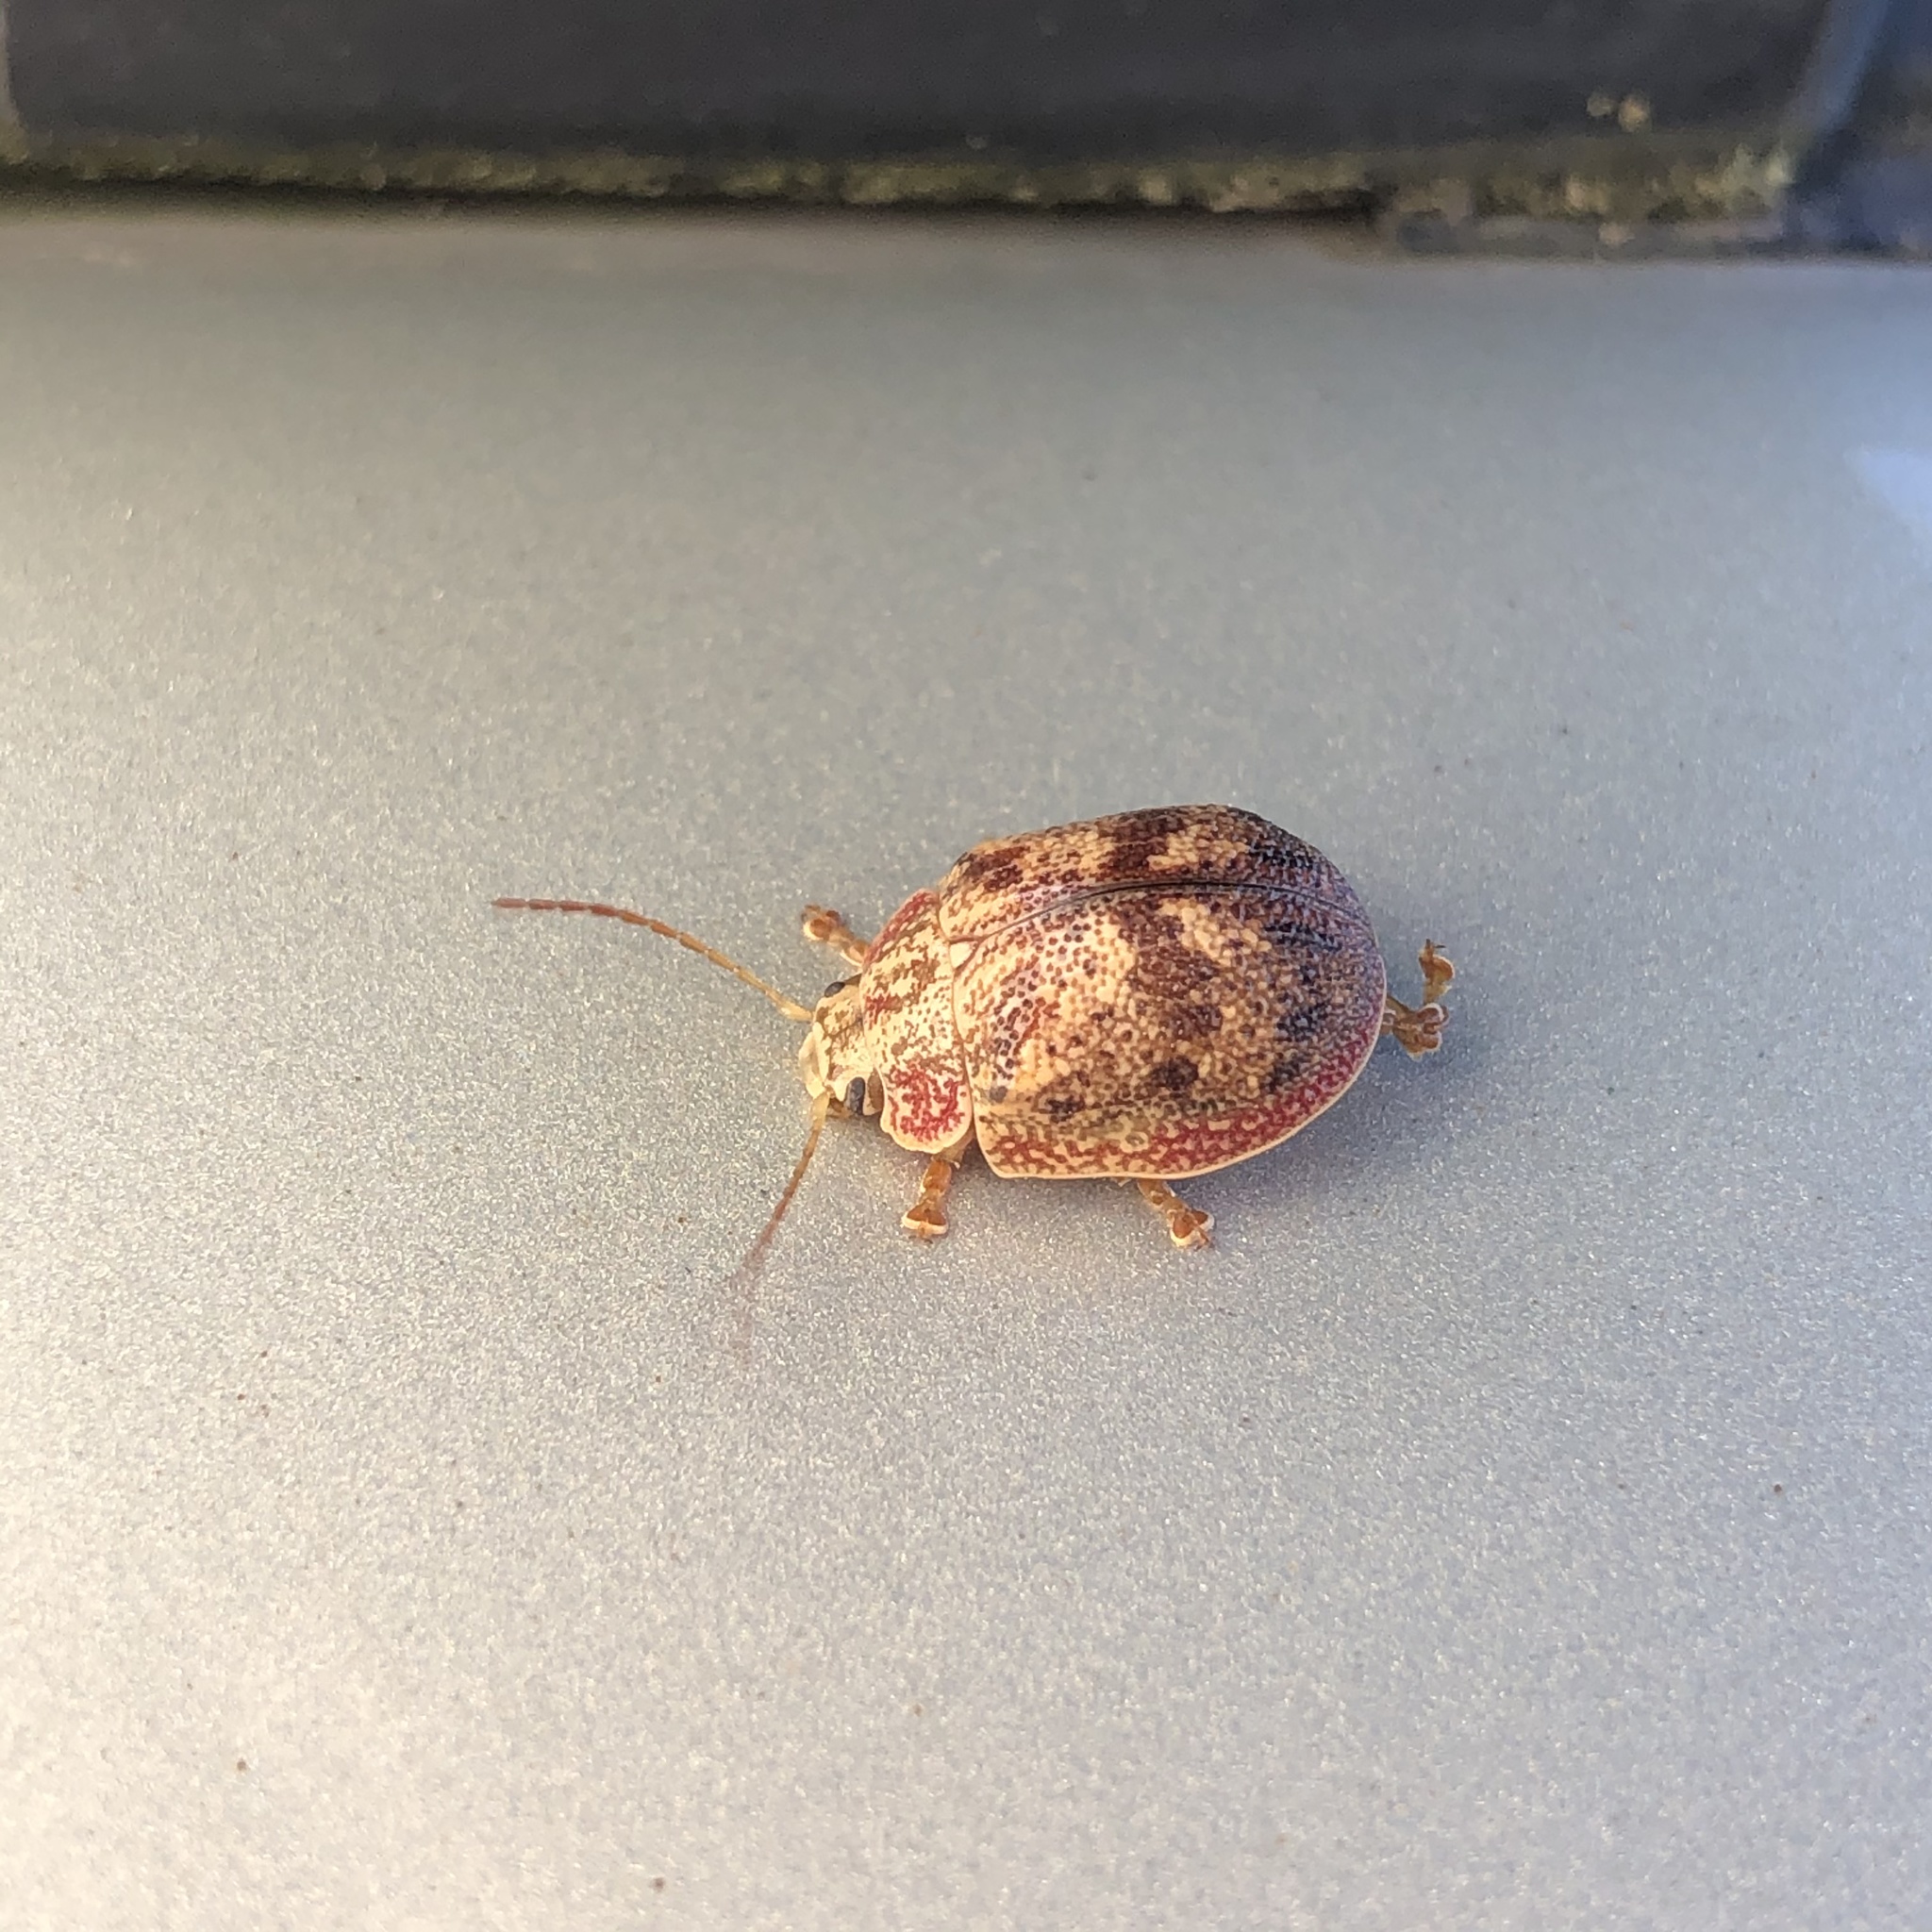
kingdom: Animalia
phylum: Arthropoda
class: Insecta
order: Coleoptera
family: Chrysomelidae
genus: Paropsis
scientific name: Paropsis charybdis
